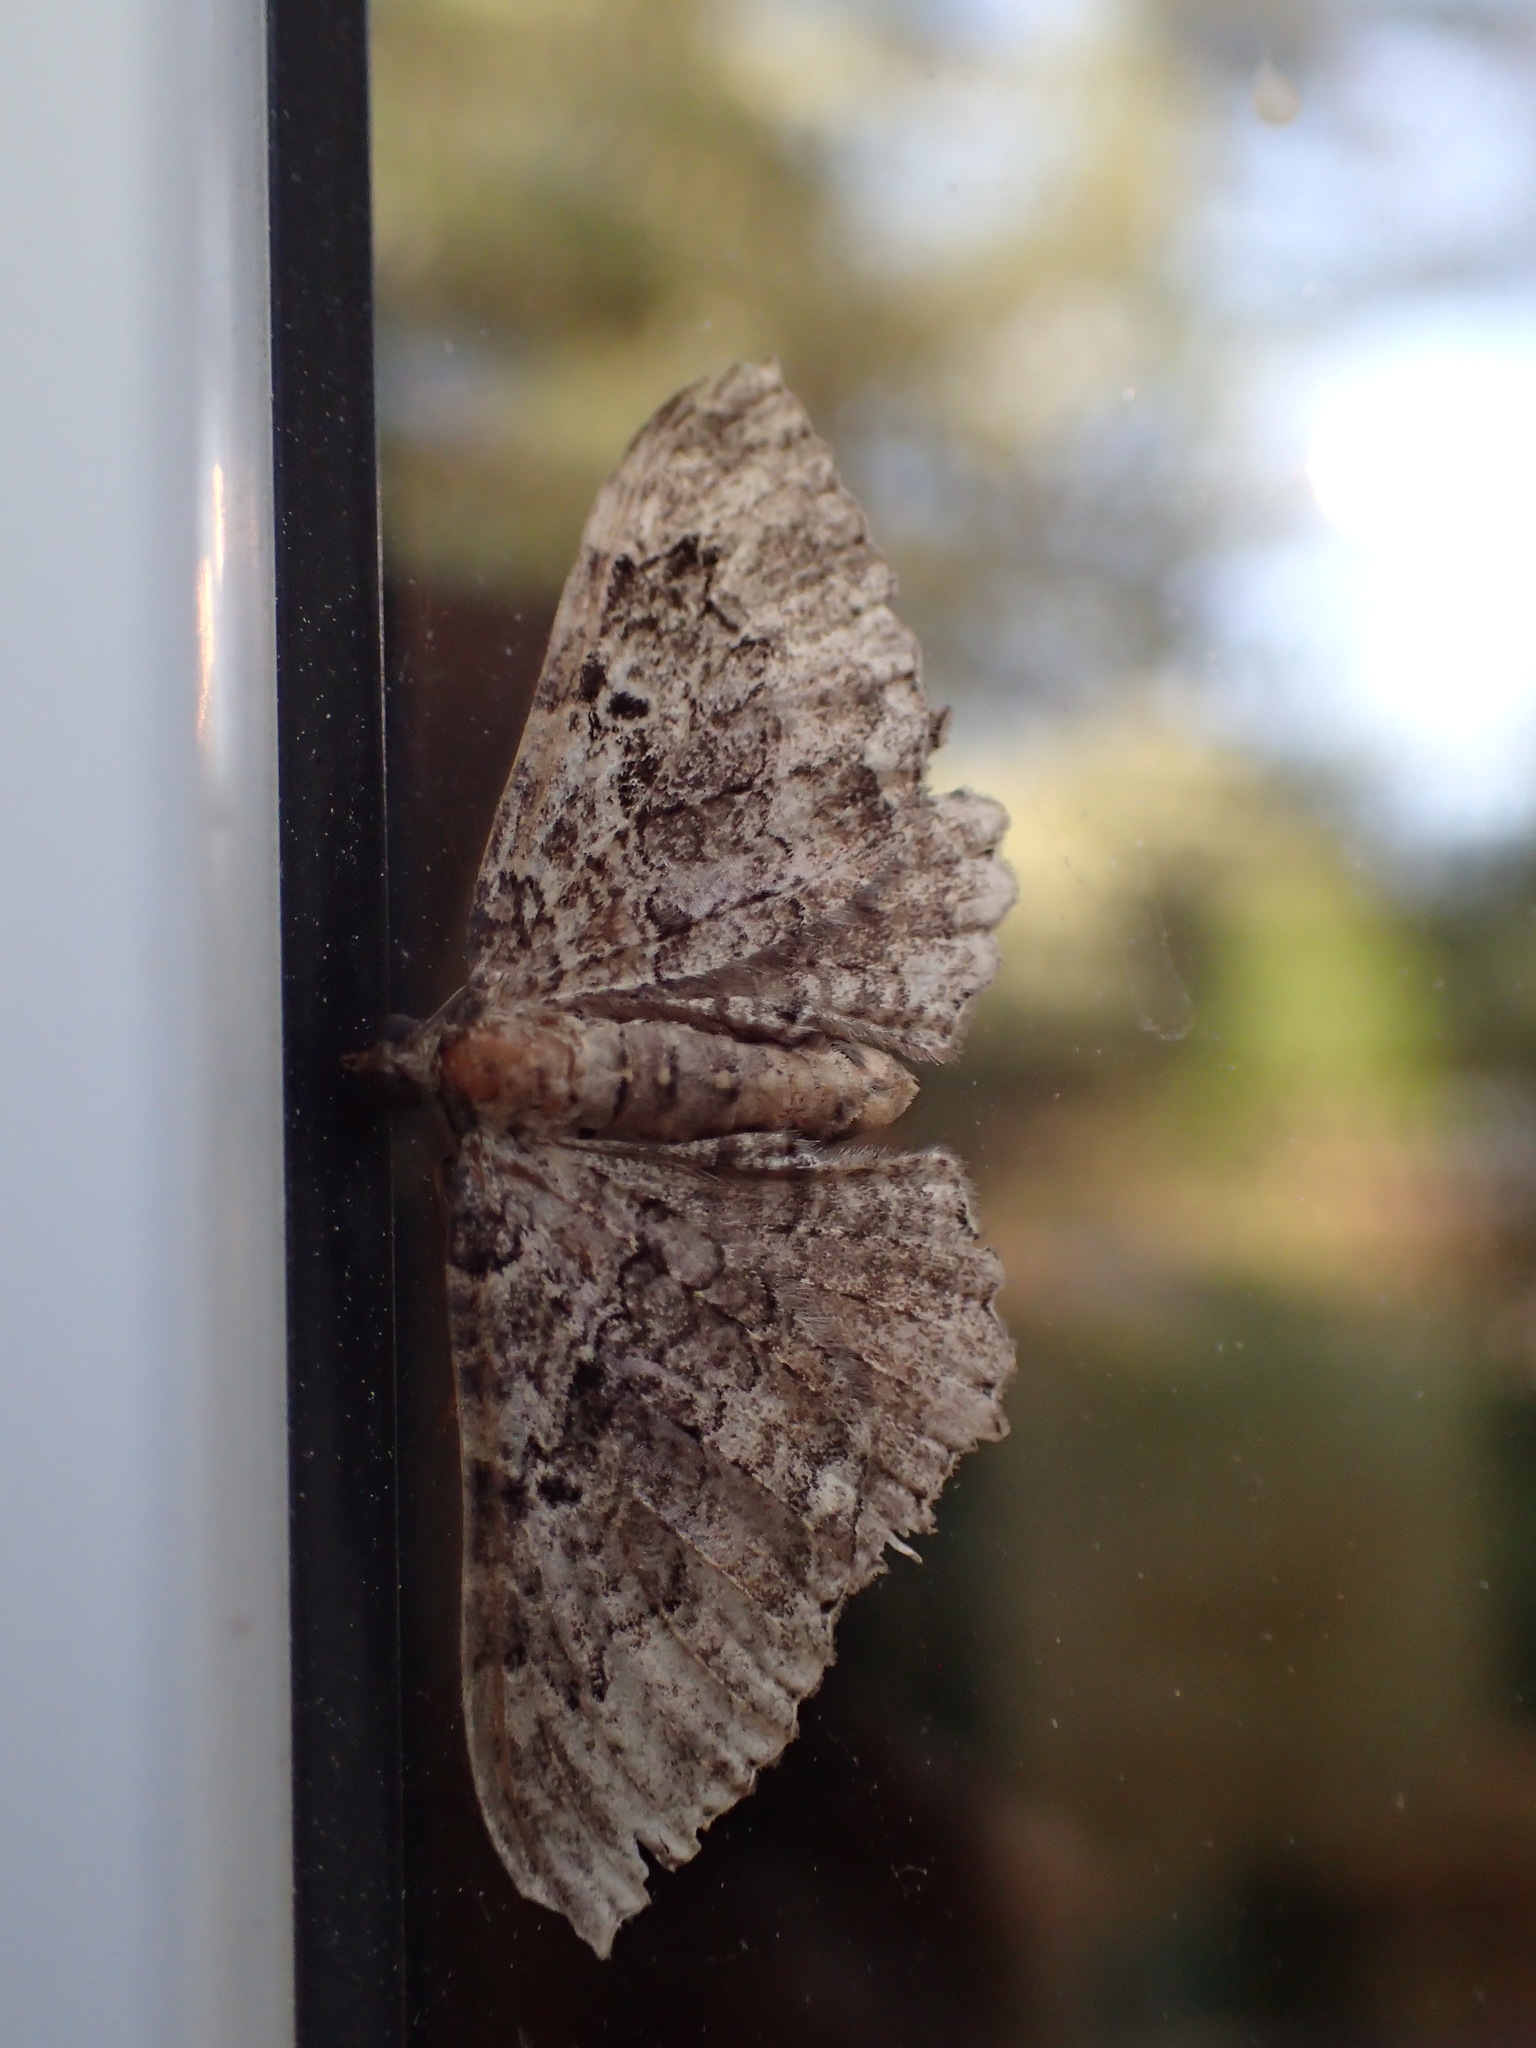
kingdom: Animalia
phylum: Arthropoda
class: Insecta
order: Lepidoptera
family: Geometridae
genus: Rheumaptera
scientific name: Rheumaptera
